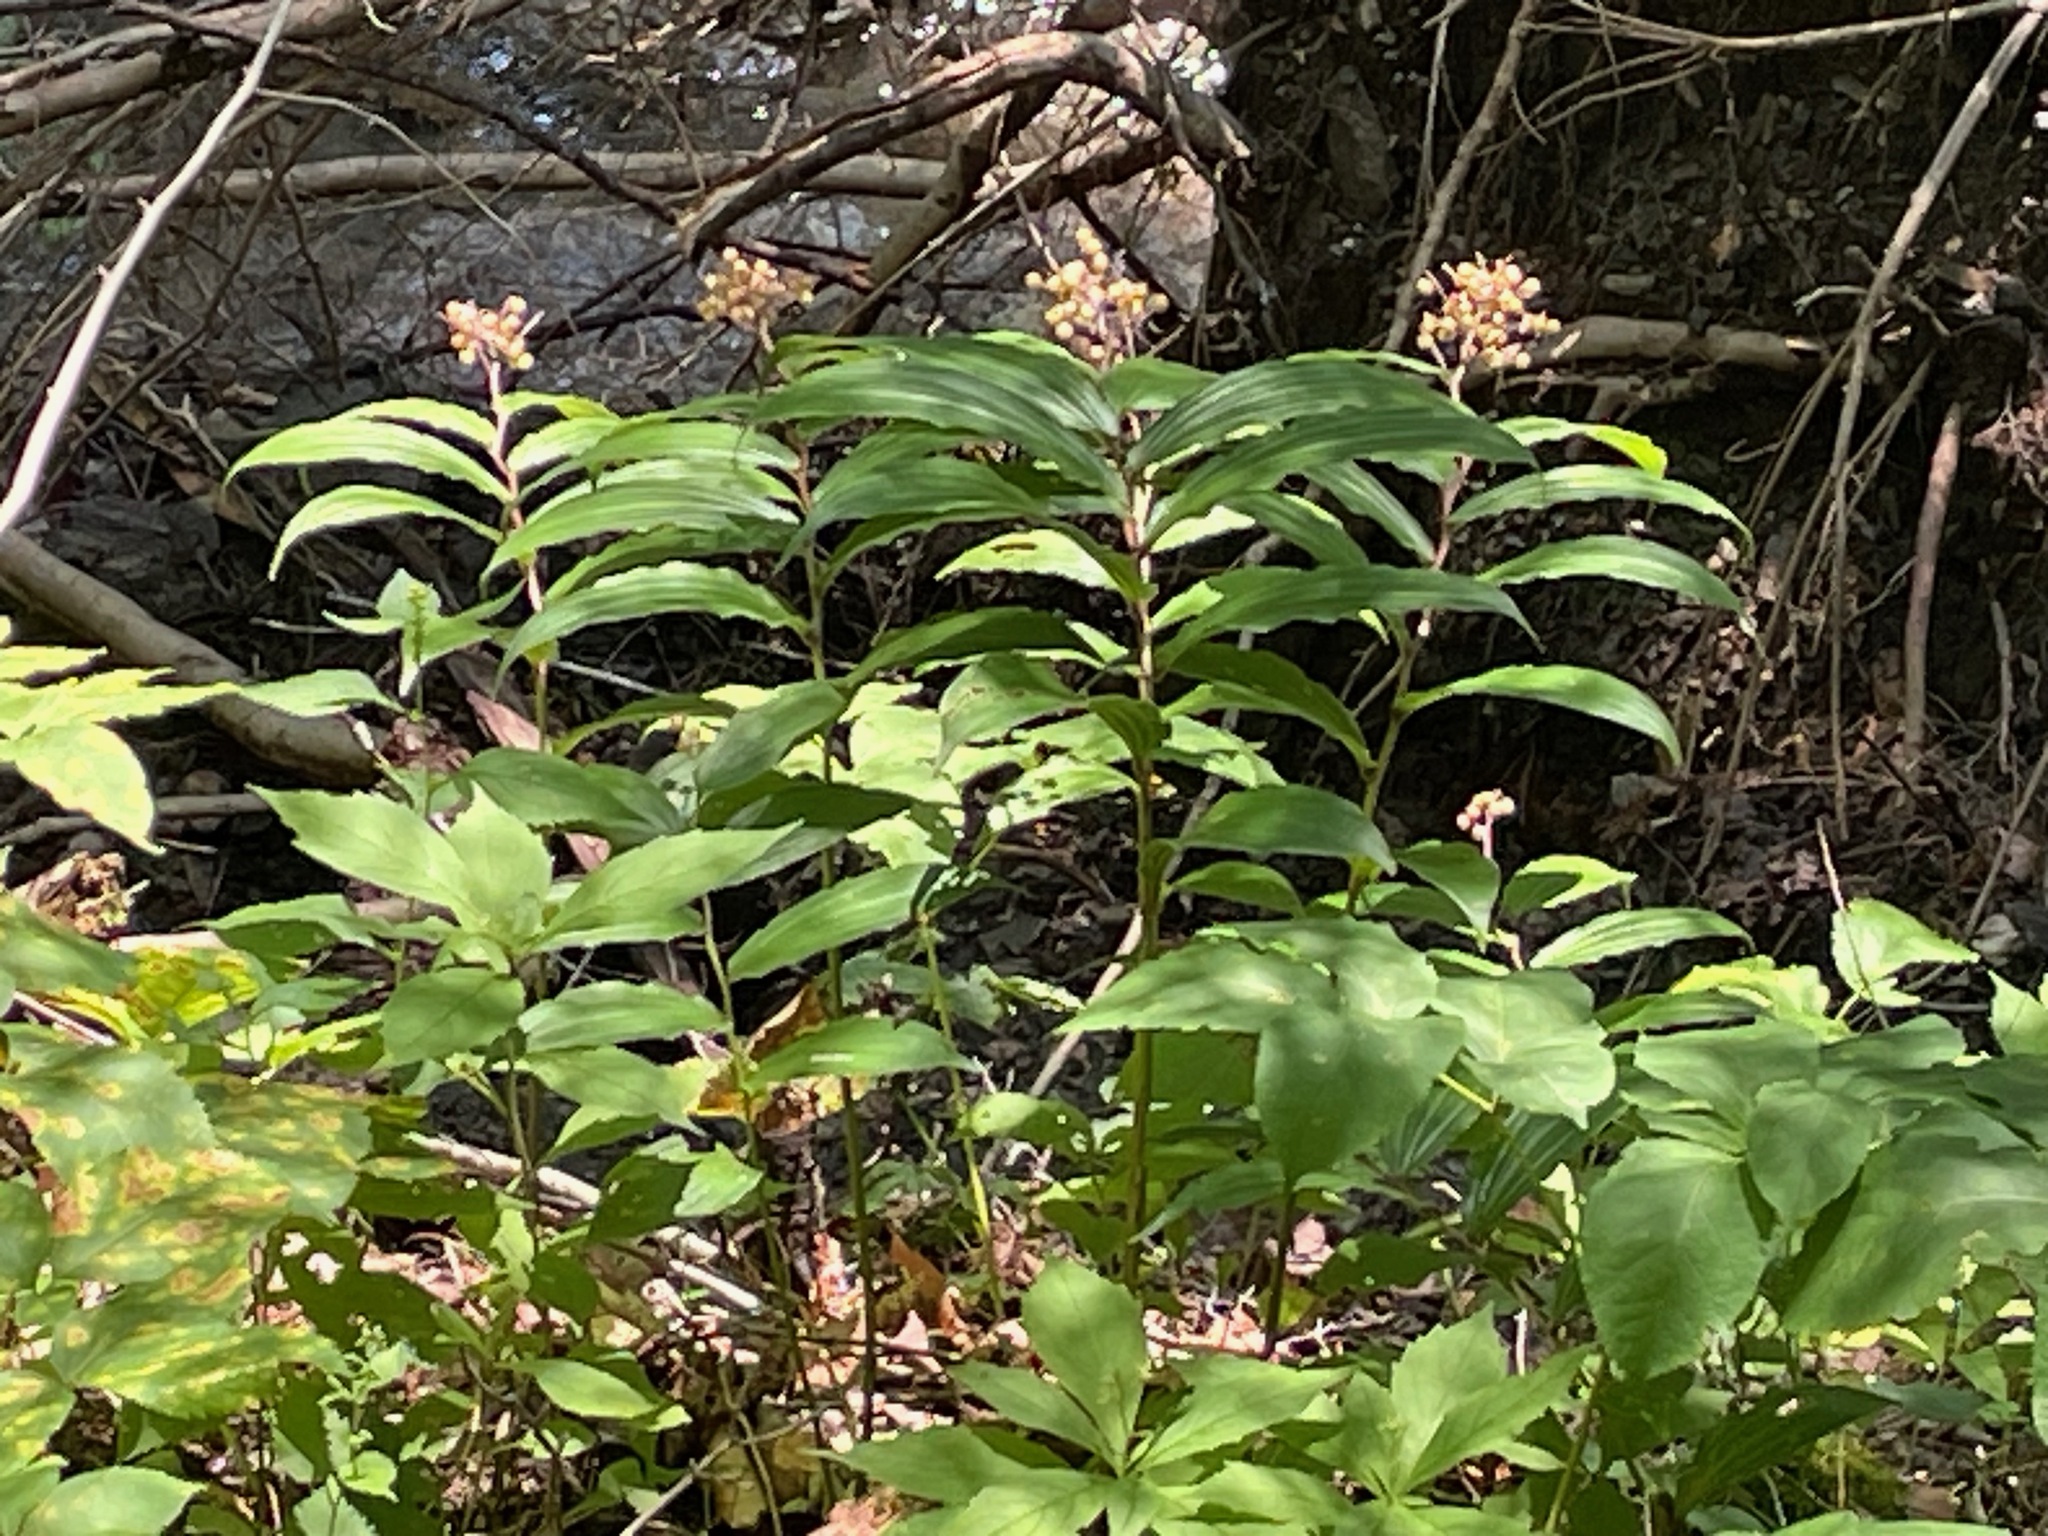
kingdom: Plantae
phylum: Tracheophyta
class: Liliopsida
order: Asparagales
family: Asparagaceae
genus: Maianthemum
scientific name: Maianthemum racemosum
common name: False spikenard
